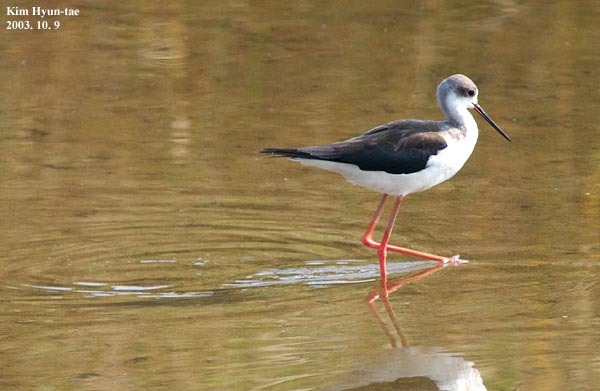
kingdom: Animalia
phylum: Chordata
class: Aves
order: Charadriiformes
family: Recurvirostridae
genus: Himantopus
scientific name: Himantopus himantopus
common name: Black-winged stilt
